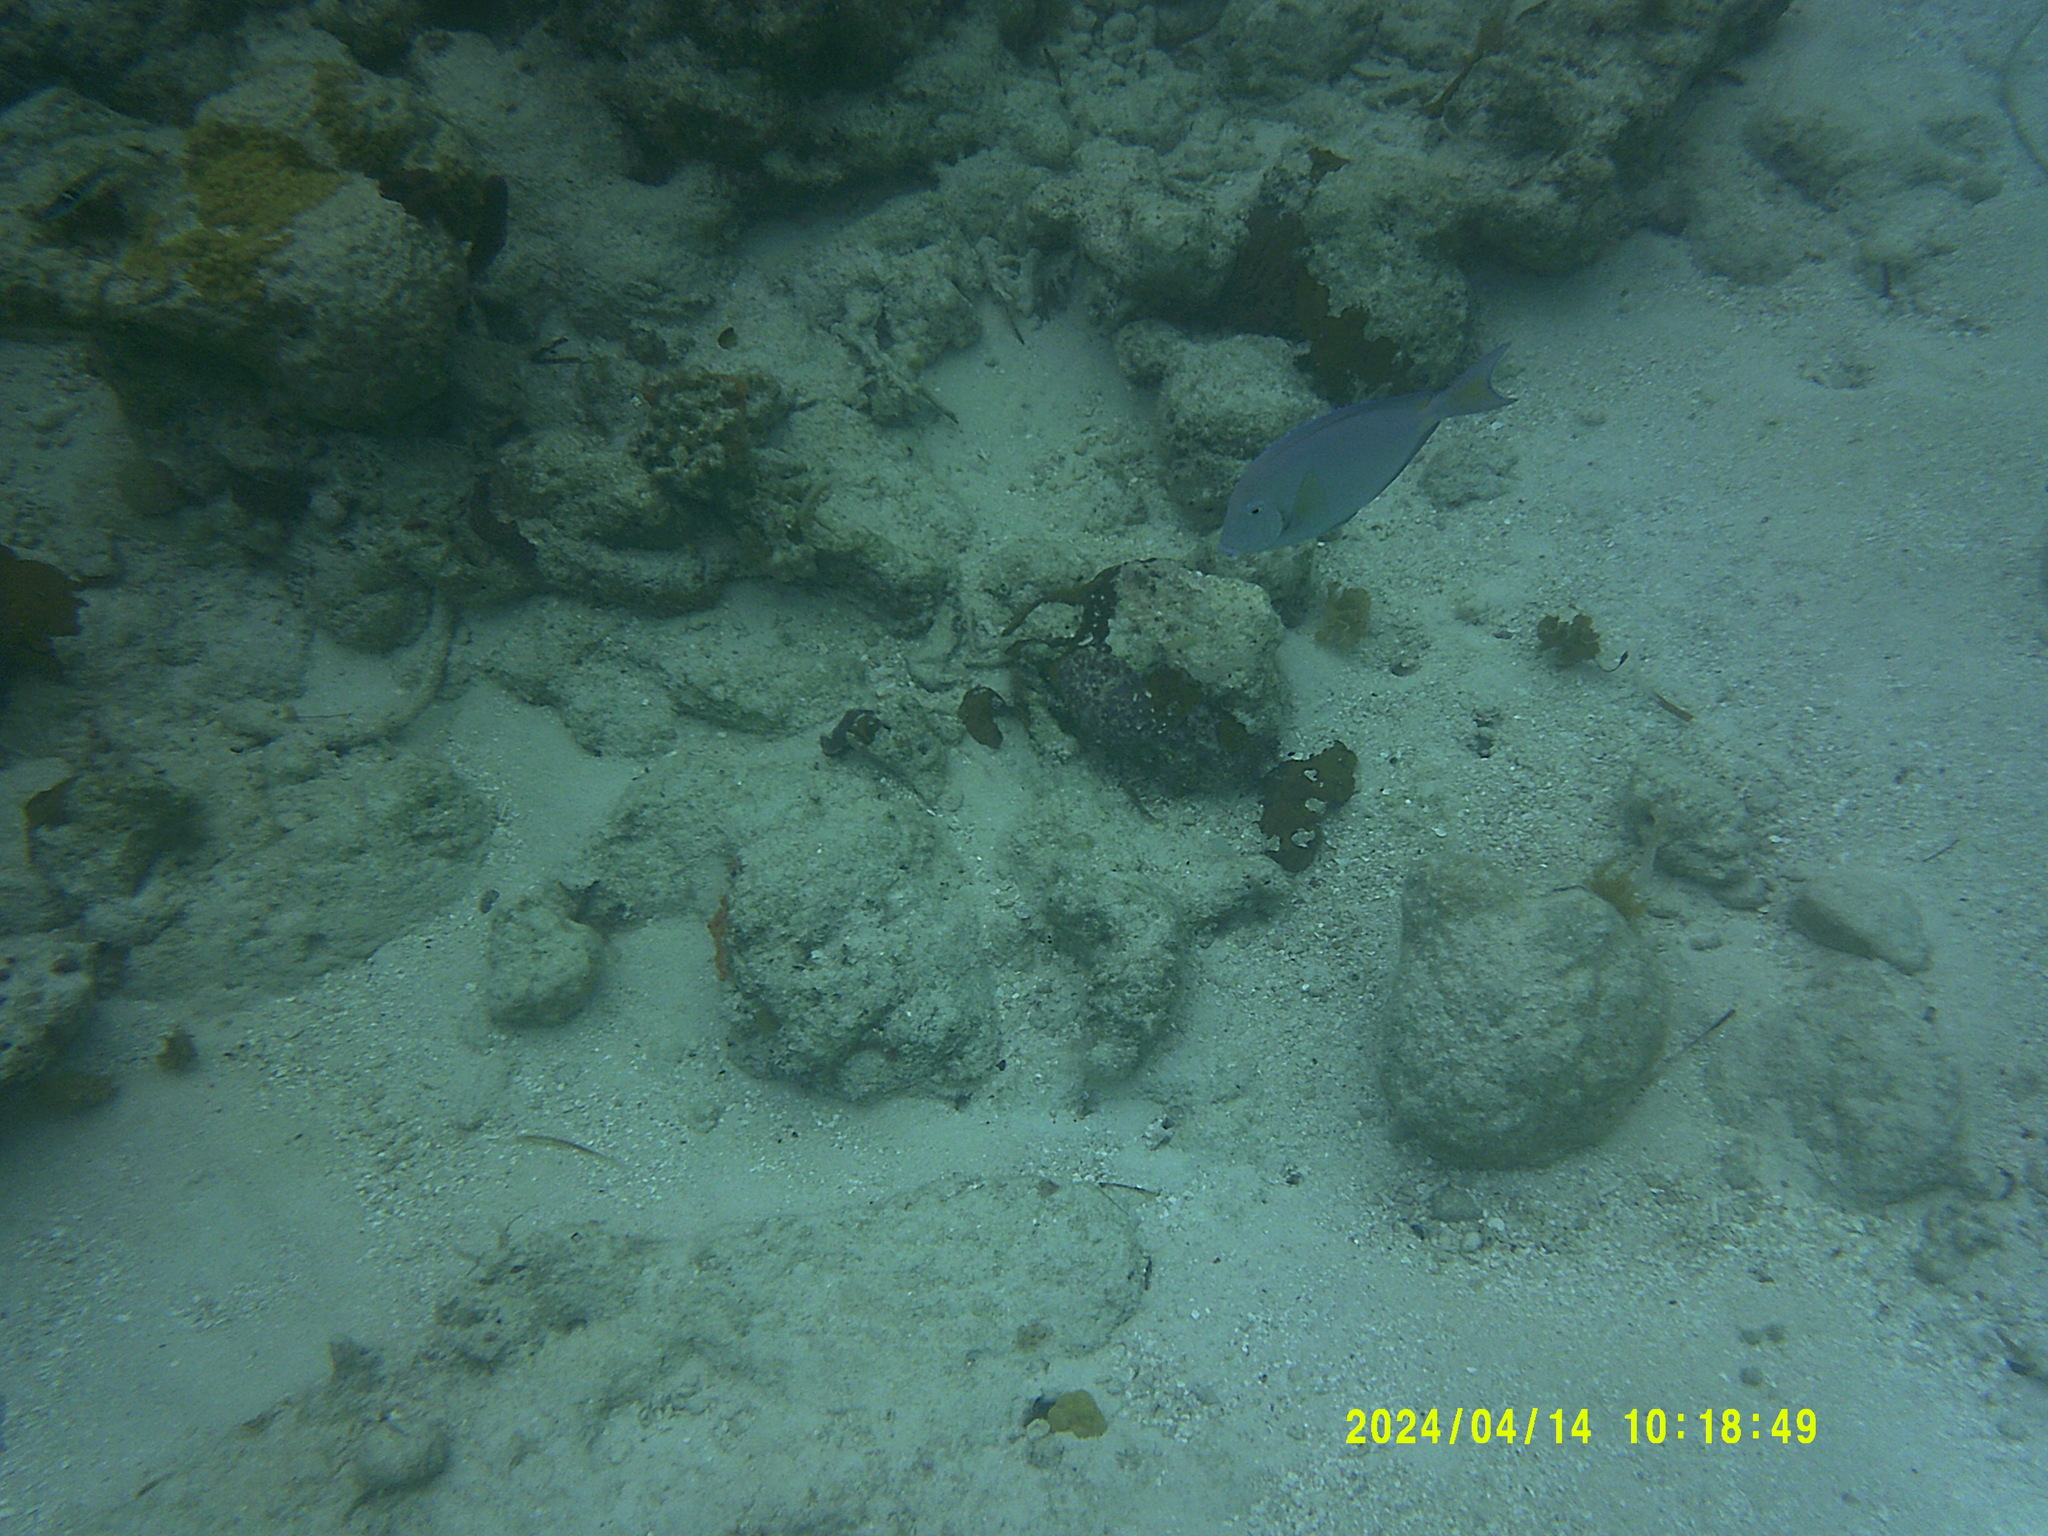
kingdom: Animalia
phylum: Chordata
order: Perciformes
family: Acanthuridae
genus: Acanthurus
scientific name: Acanthurus coeruleus
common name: Blue tang
